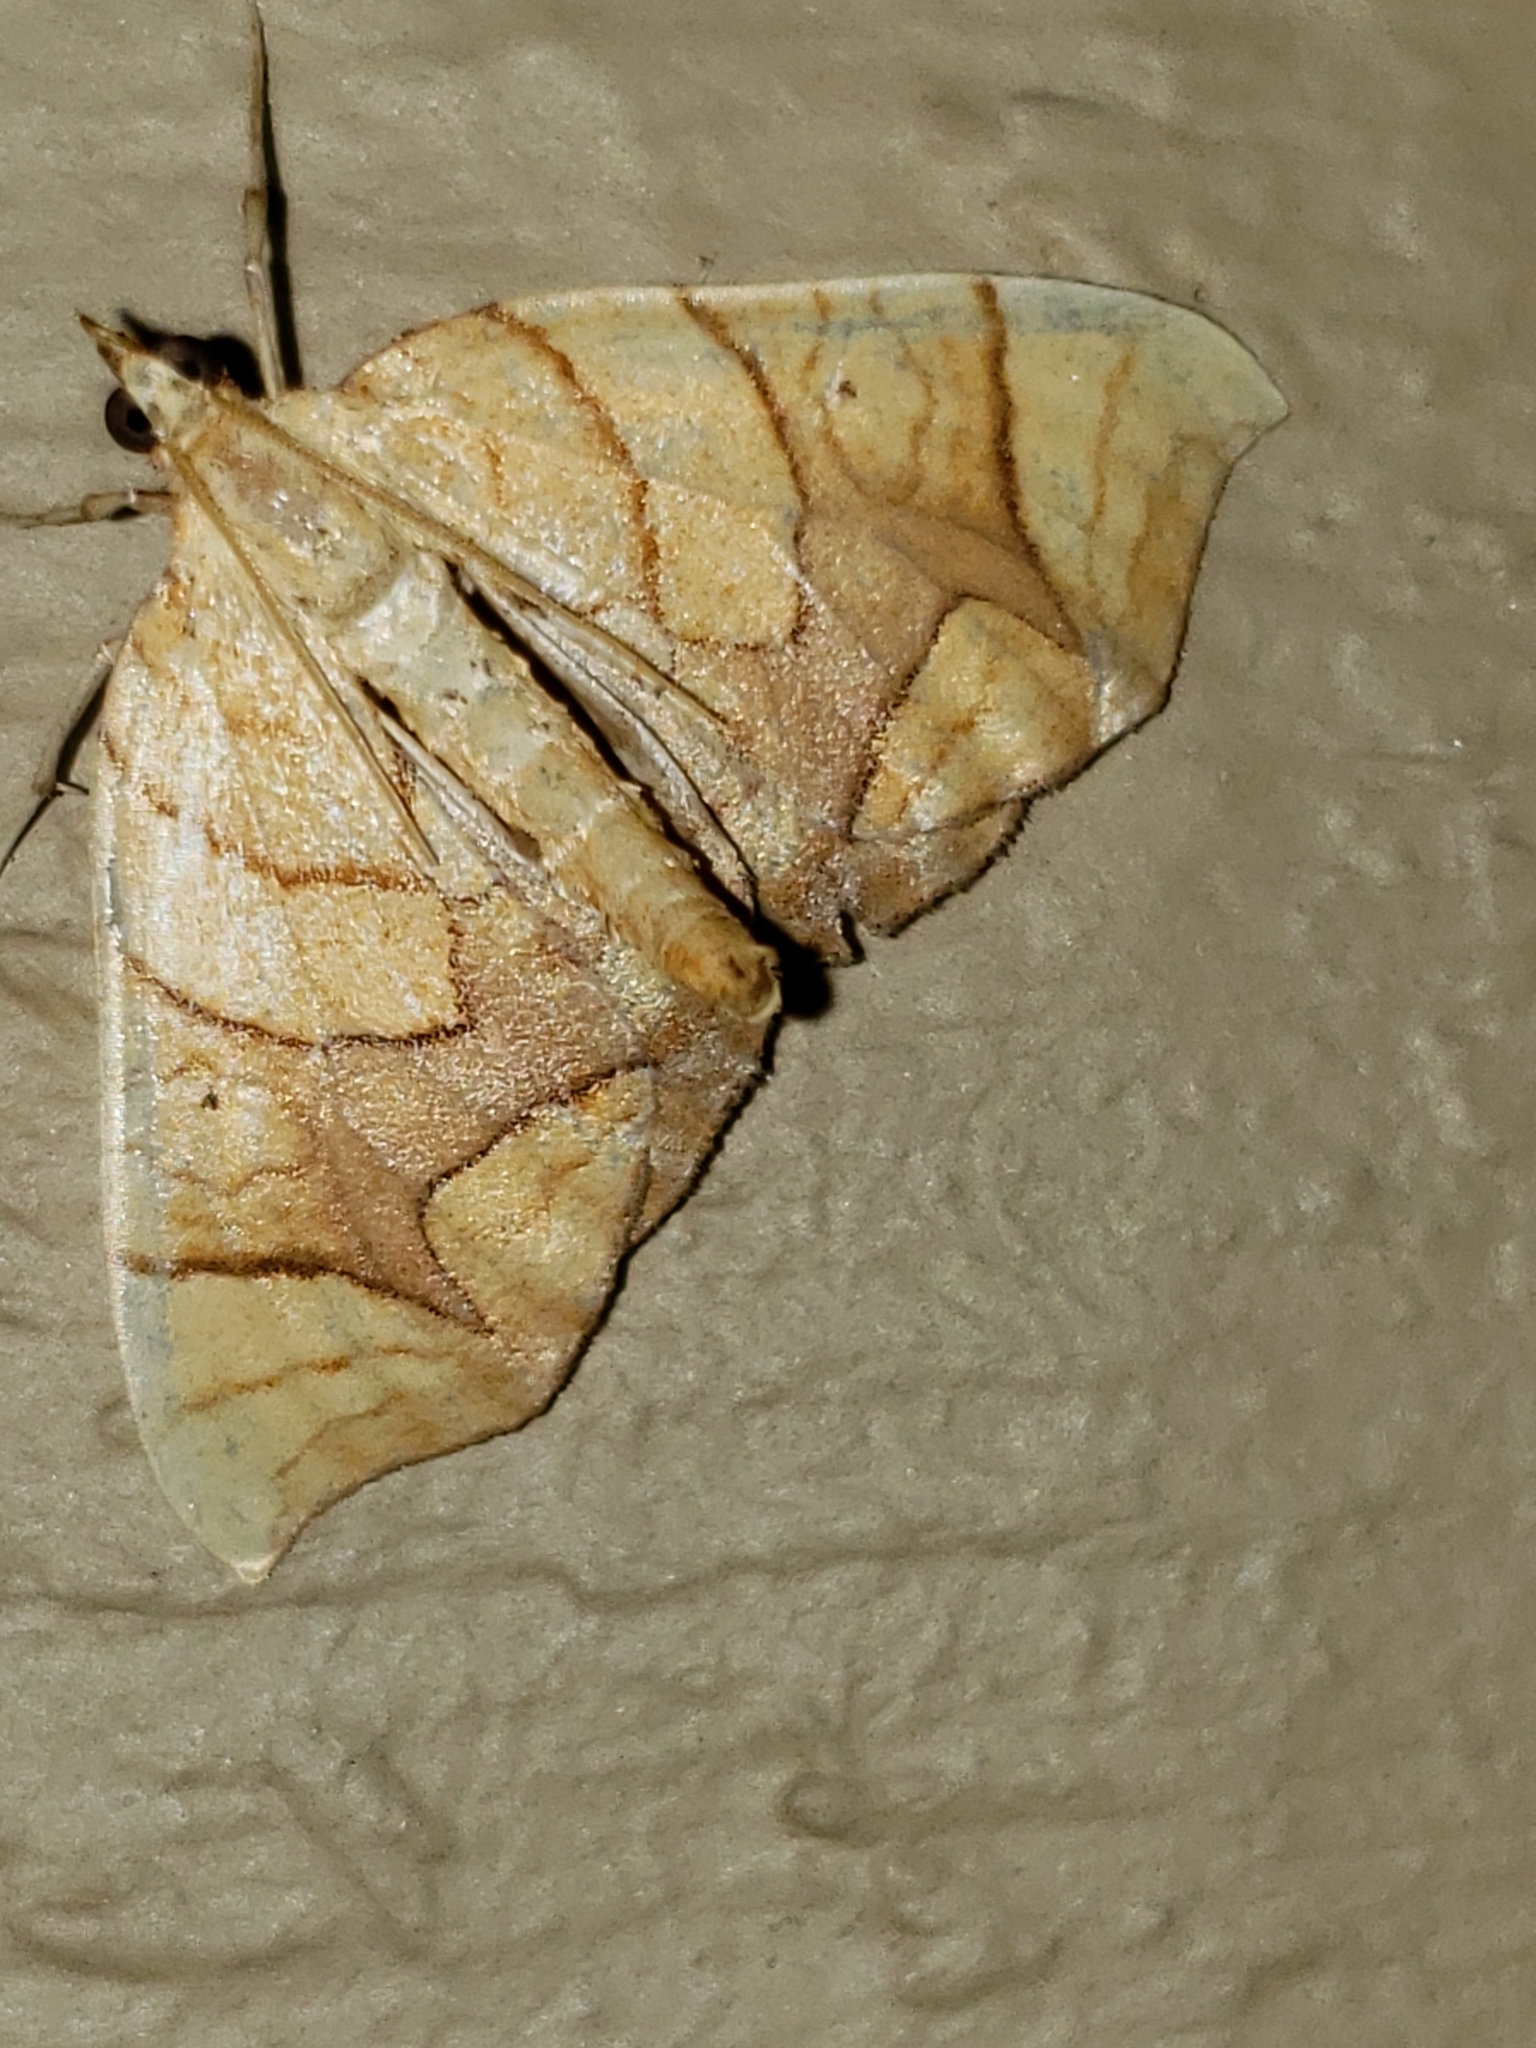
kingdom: Animalia
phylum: Arthropoda
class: Insecta
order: Lepidoptera
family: Geometridae
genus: Eulithis
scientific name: Eulithis diversilineata
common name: Grapevine looper
